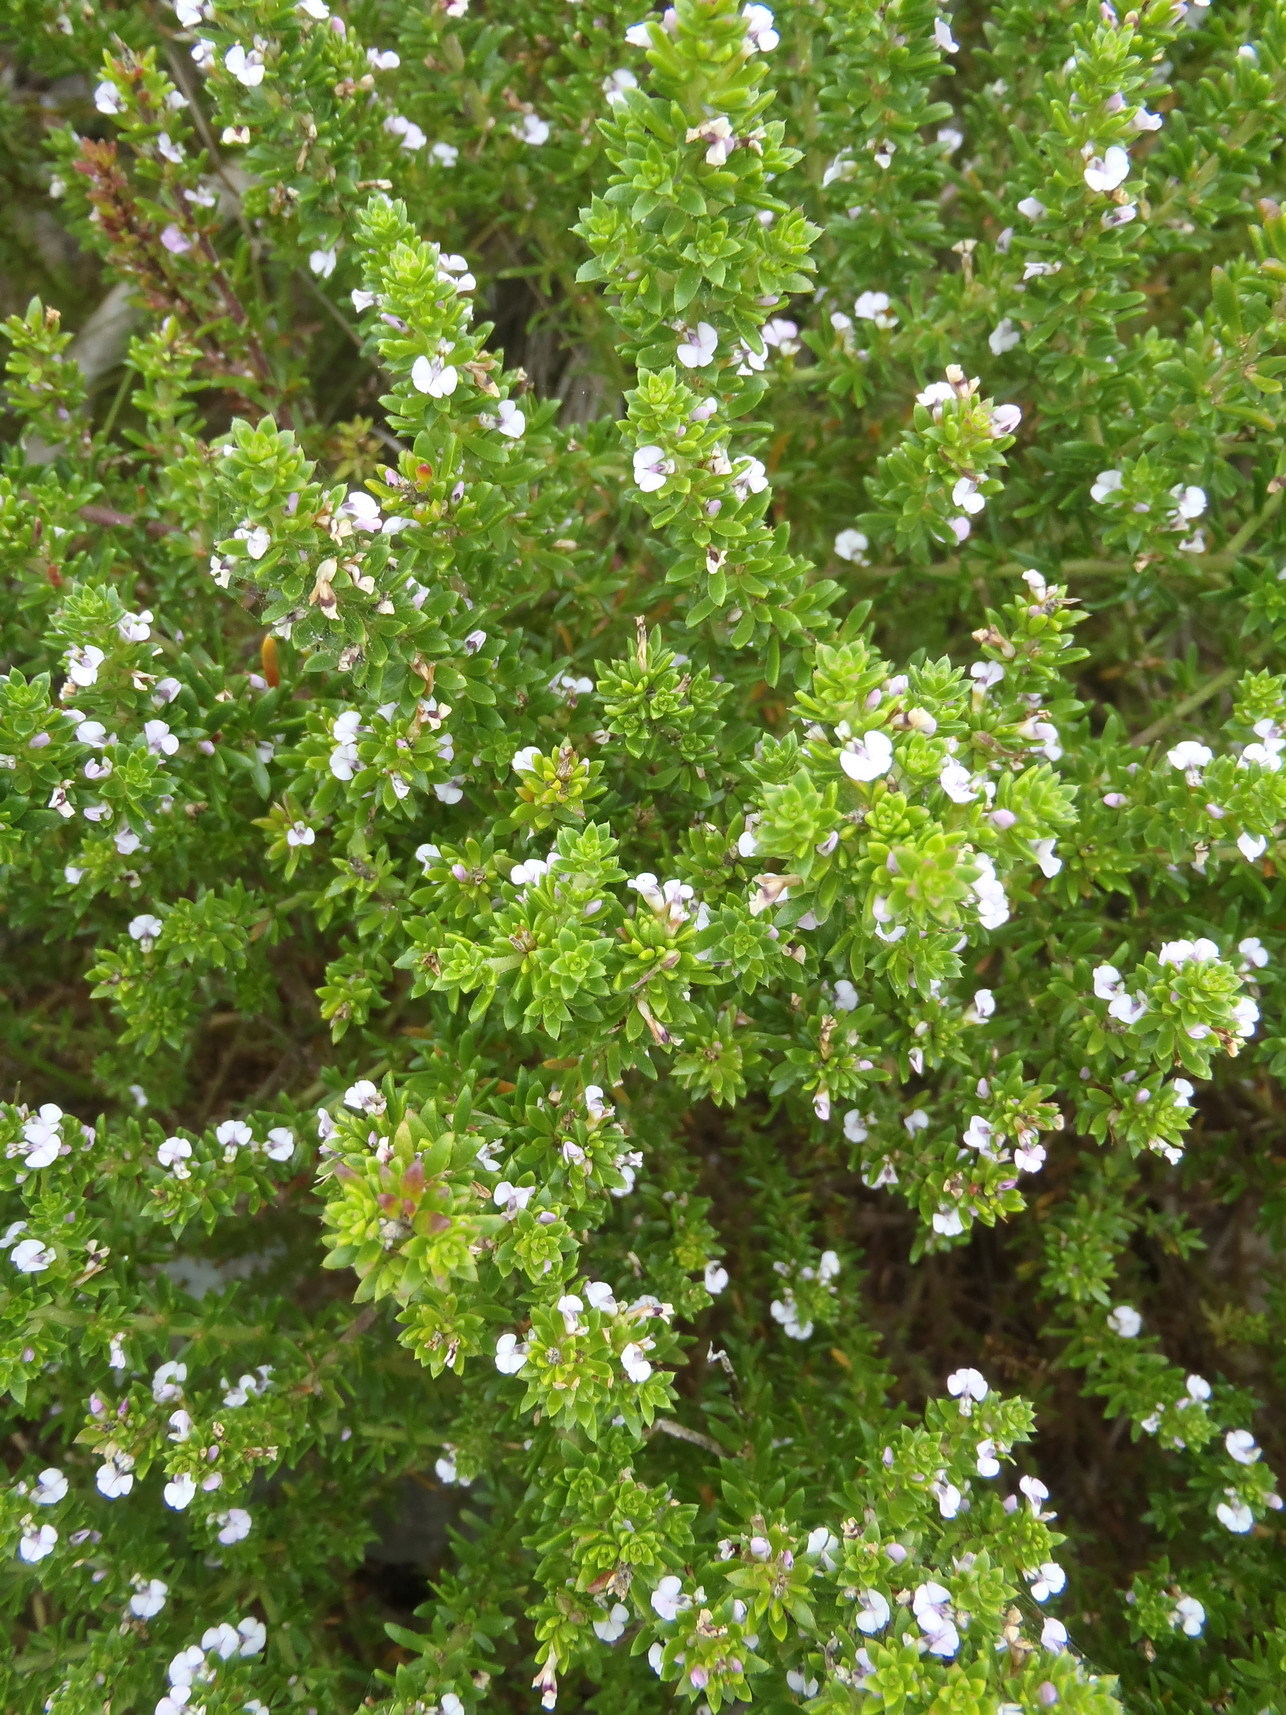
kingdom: Plantae
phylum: Tracheophyta
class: Magnoliopsida
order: Fabales
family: Polygalaceae
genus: Muraltia
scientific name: Muraltia satureioides
